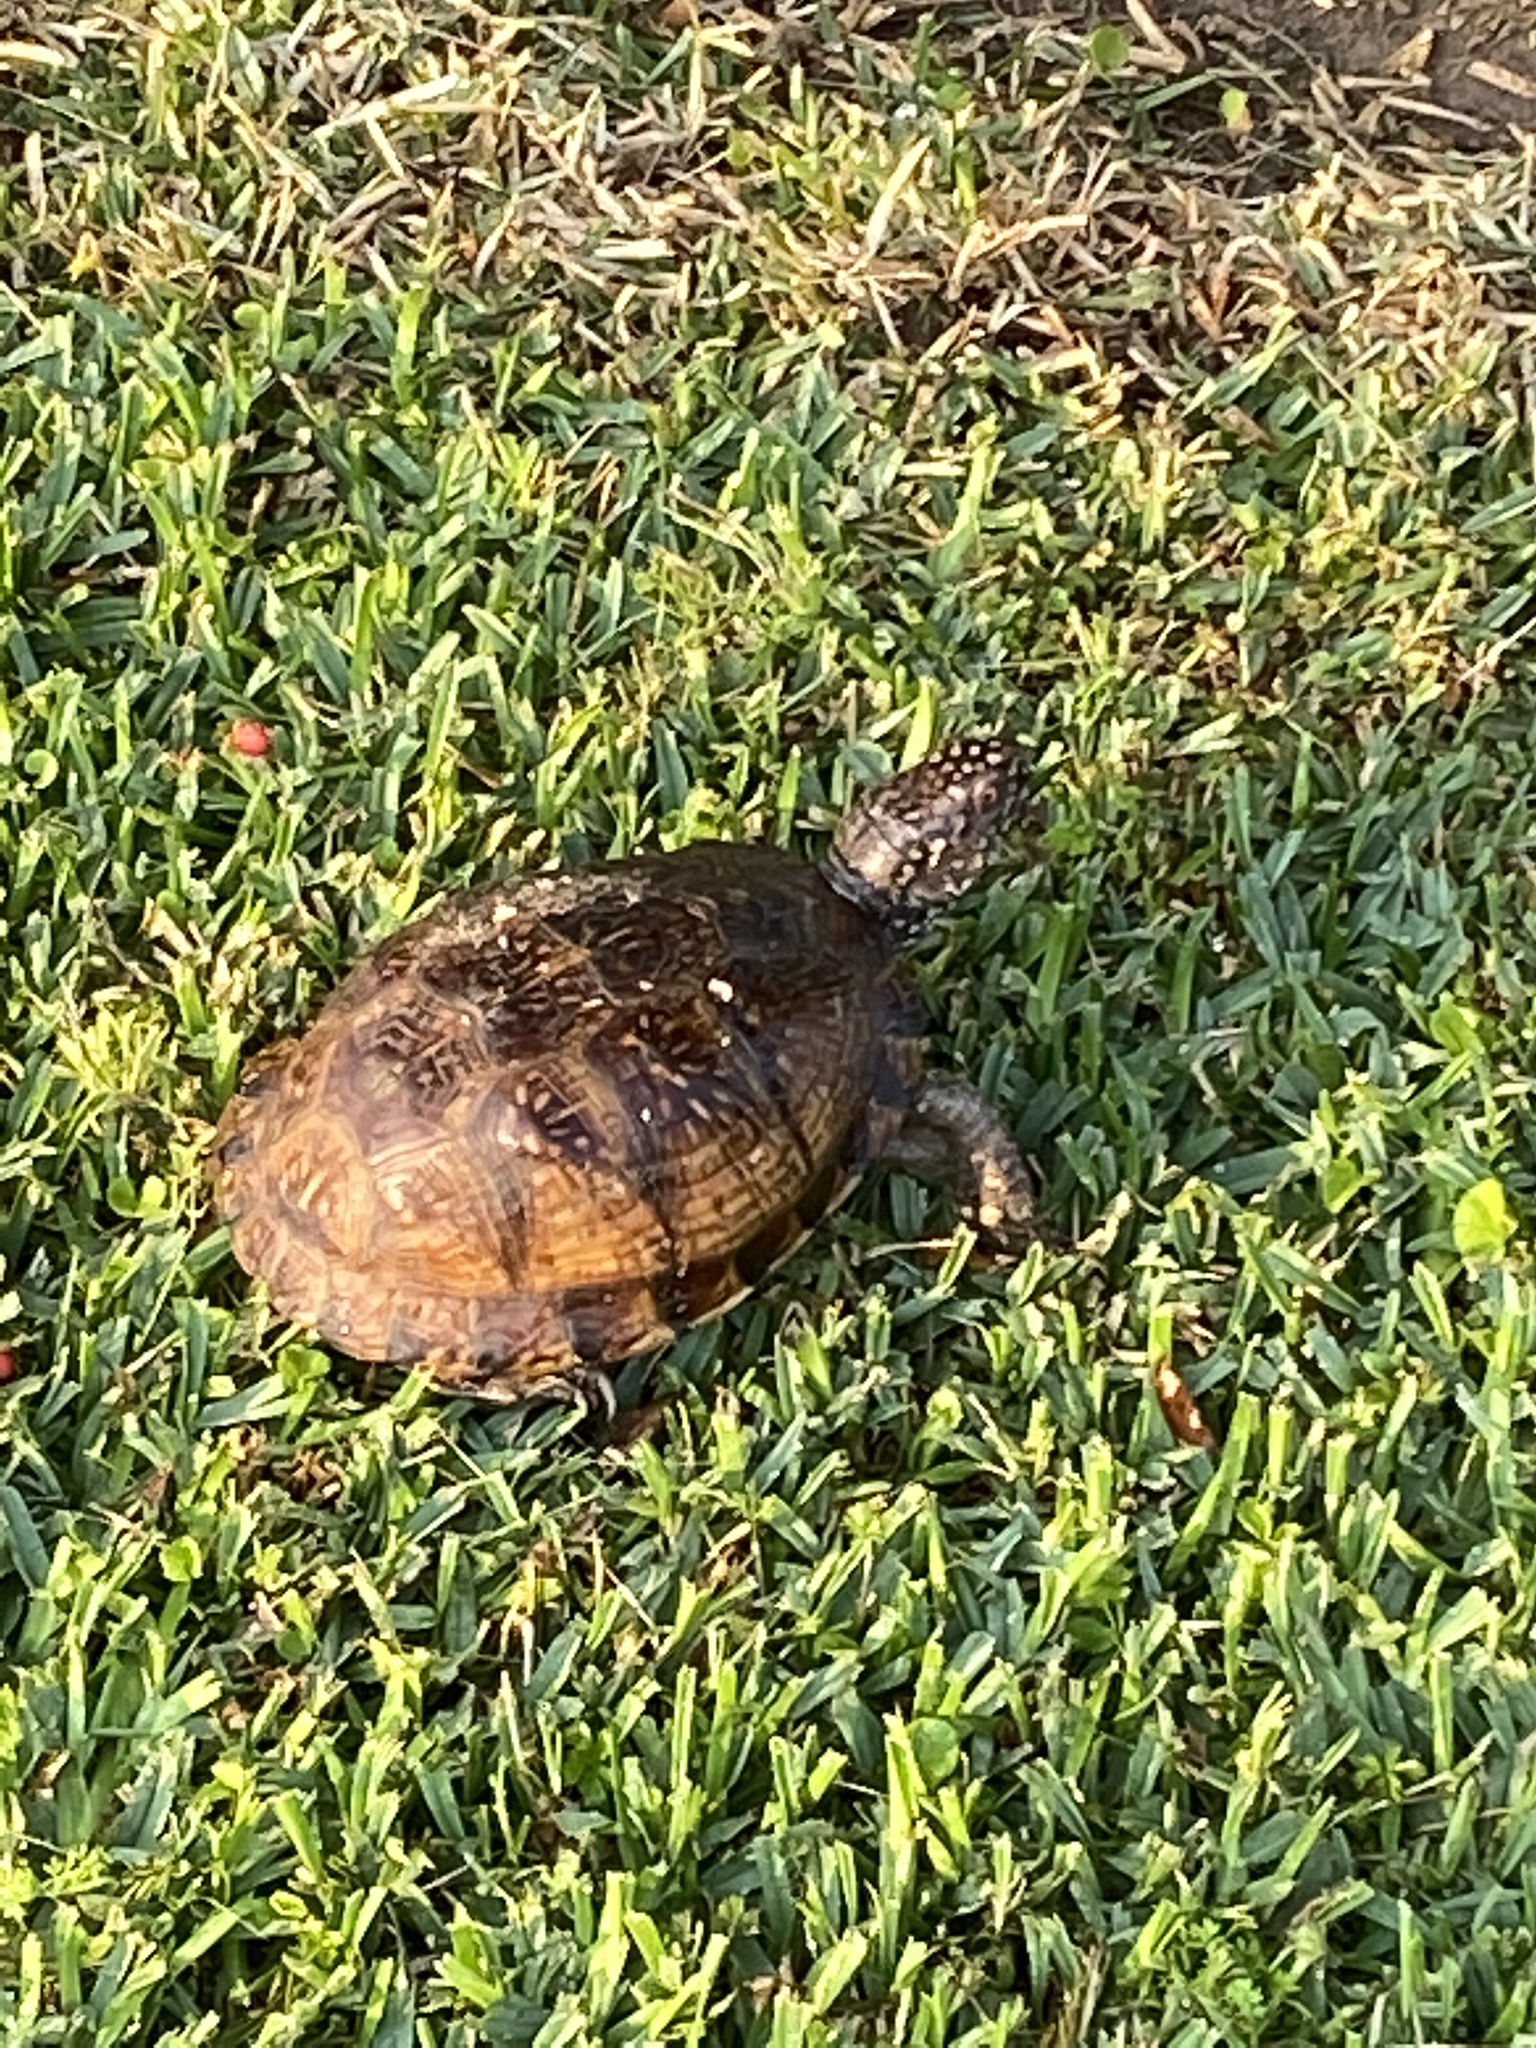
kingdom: Animalia
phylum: Chordata
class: Testudines
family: Emydidae
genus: Terrapene
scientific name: Terrapene carolina
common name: Common box turtle
